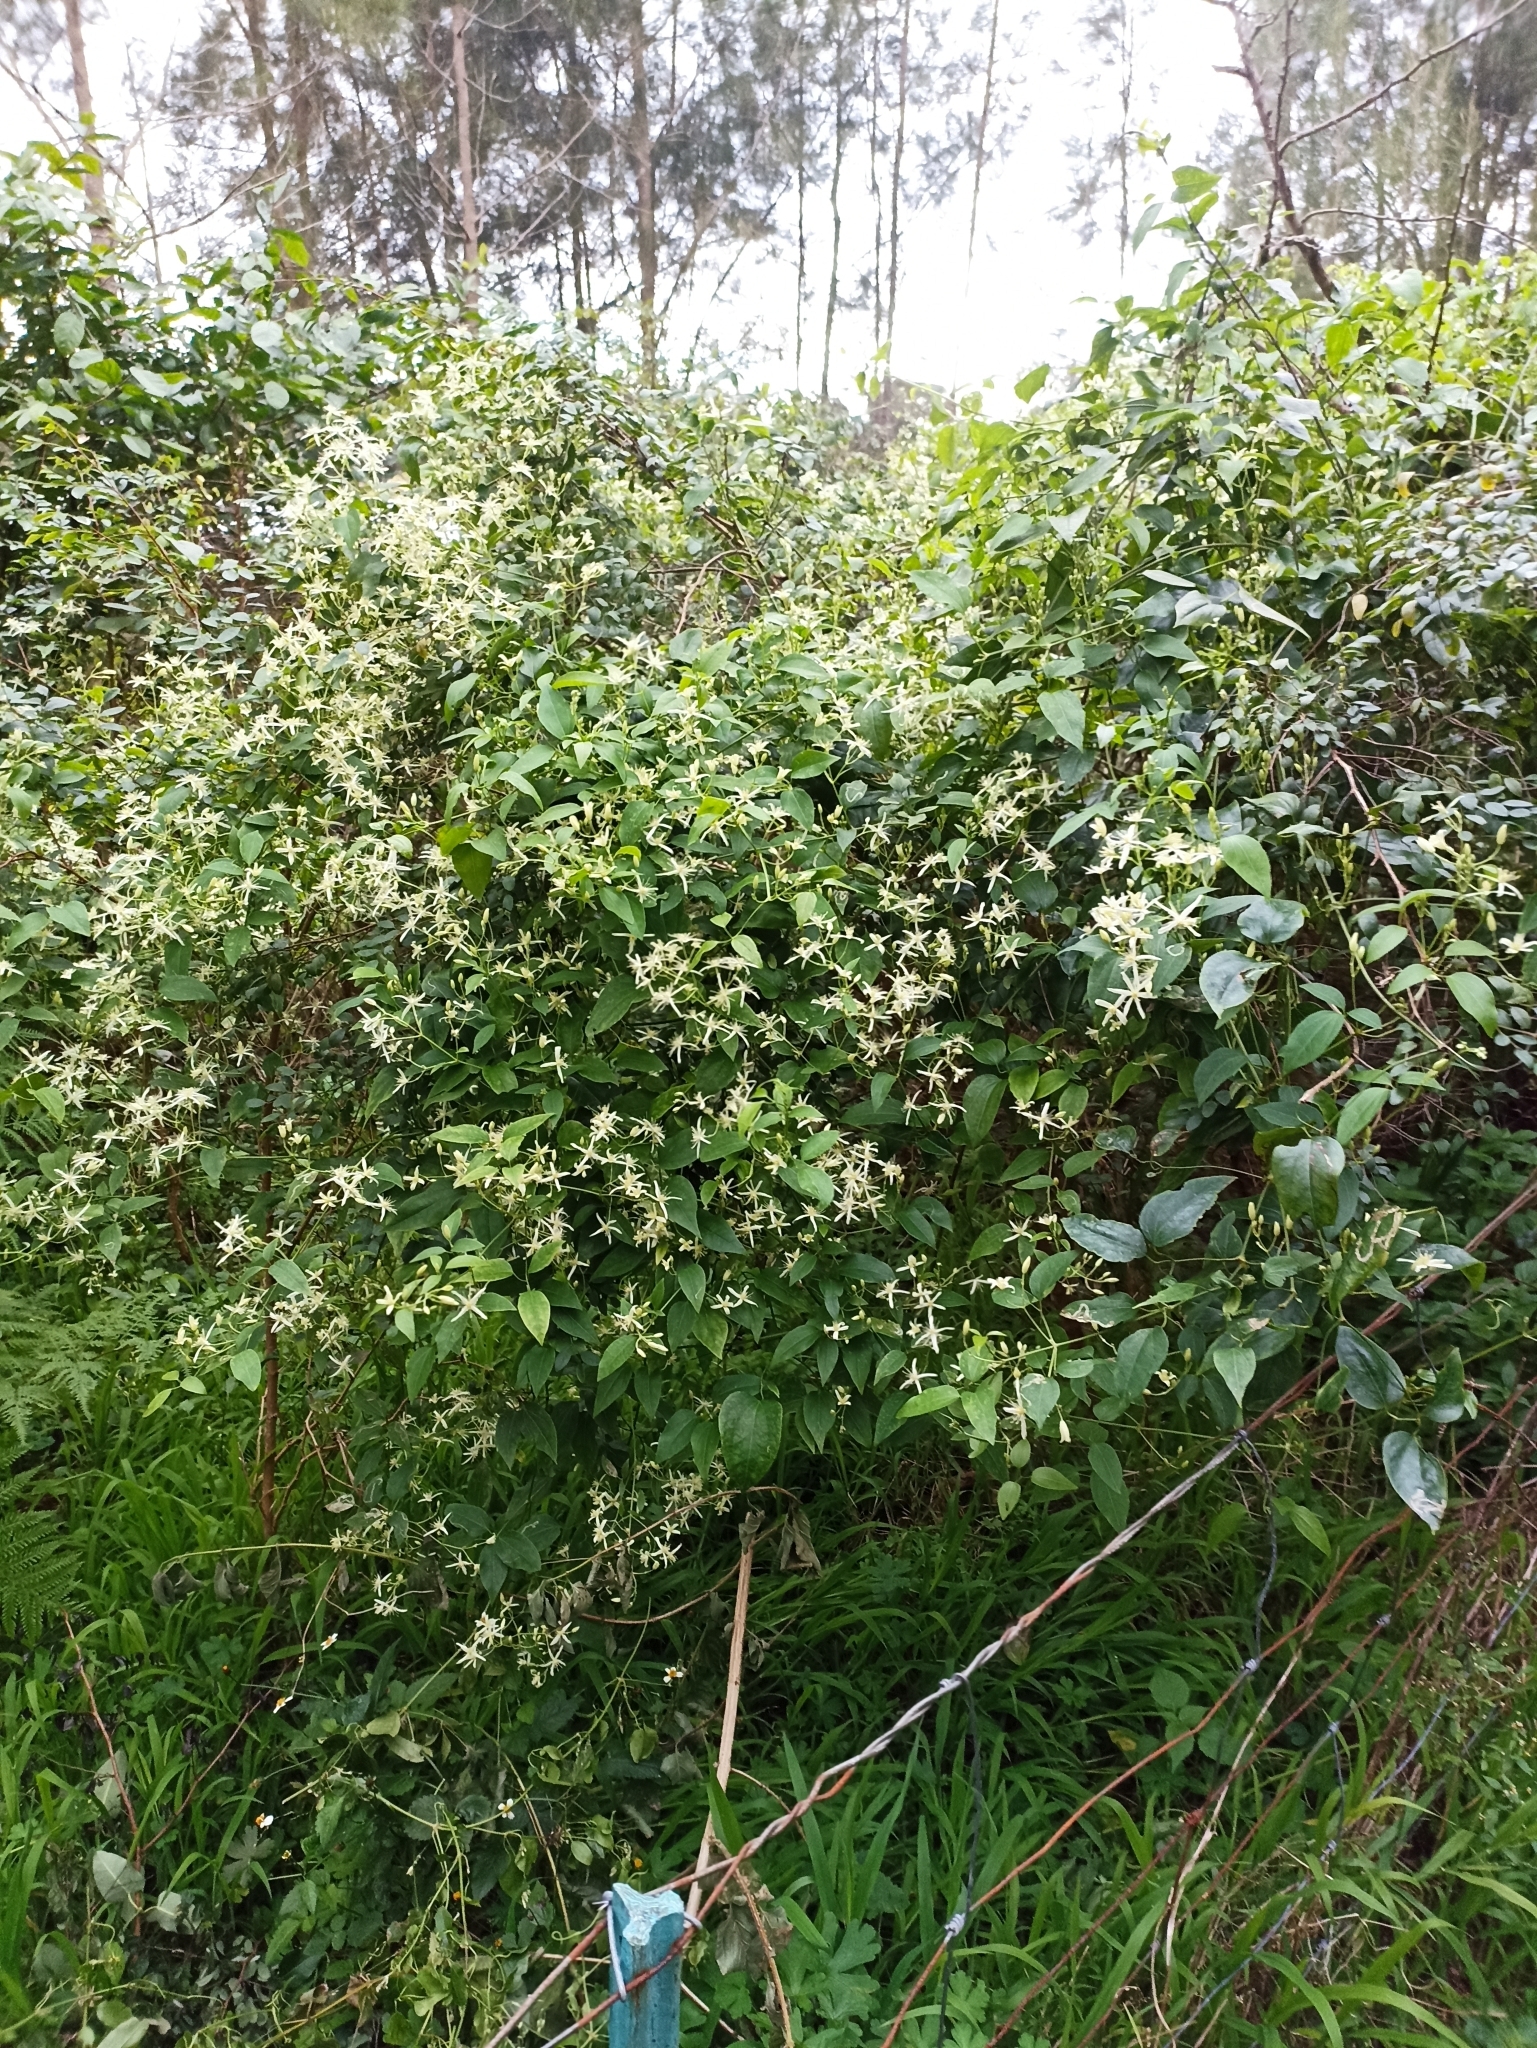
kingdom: Plantae
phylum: Tracheophyta
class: Magnoliopsida
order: Ranunculales
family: Ranunculaceae
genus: Clematis
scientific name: Clematis glycinoides
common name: Forest clematis
